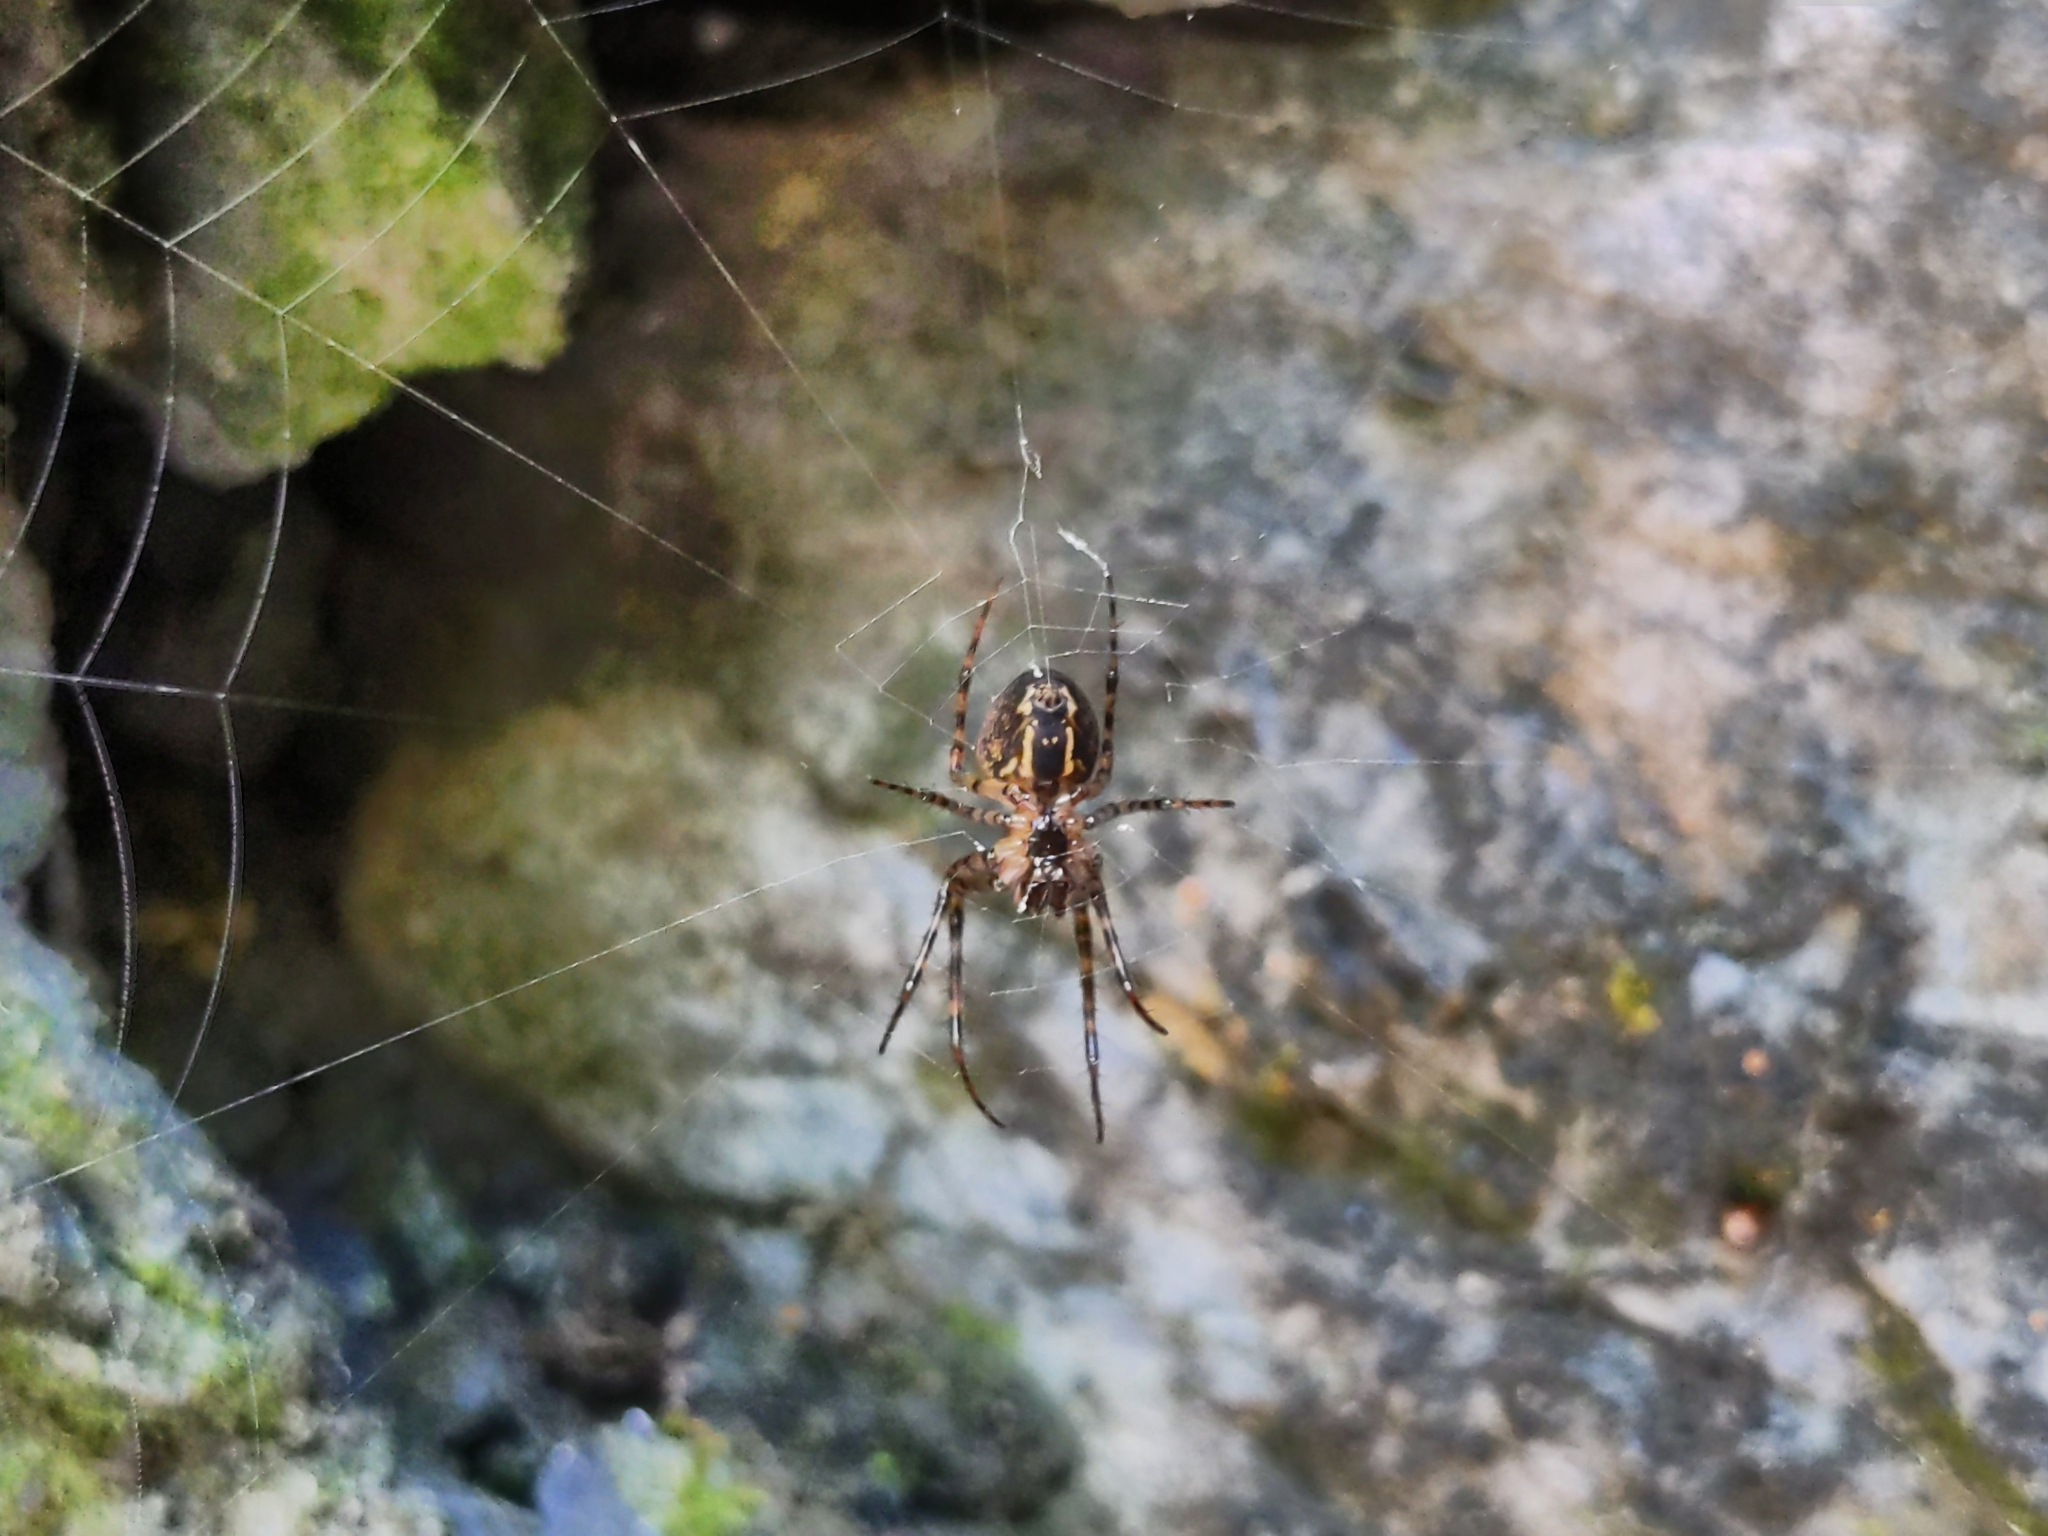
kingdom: Animalia
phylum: Arthropoda
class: Arachnida
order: Araneae
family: Tetragnathidae
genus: Metellina
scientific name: Metellina merianae
